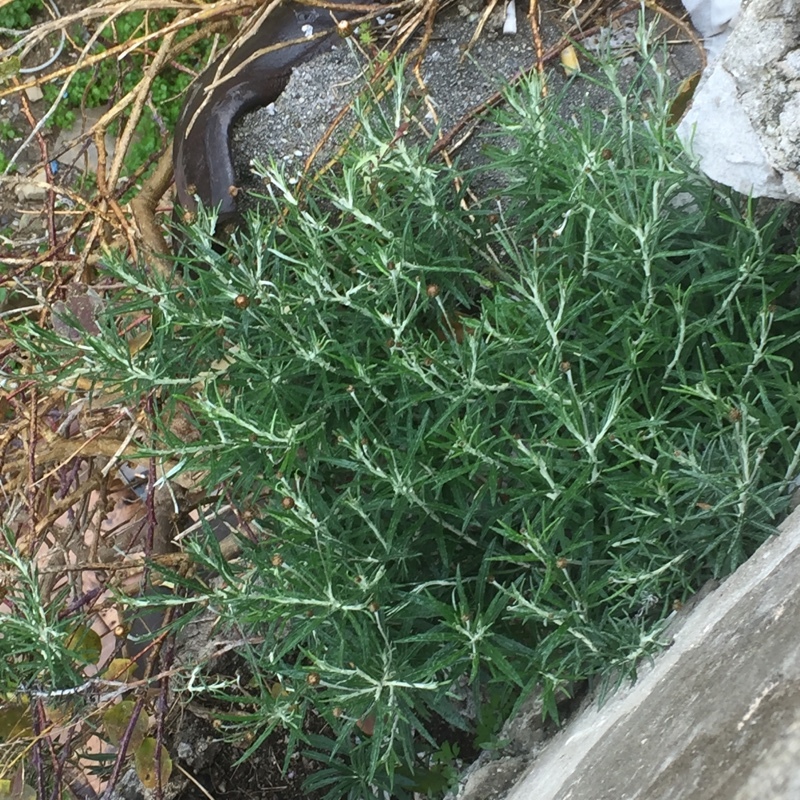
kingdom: Plantae
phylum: Tracheophyta
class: Magnoliopsida
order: Asterales
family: Asteraceae
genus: Phagnalon
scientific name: Phagnalon saxatile
